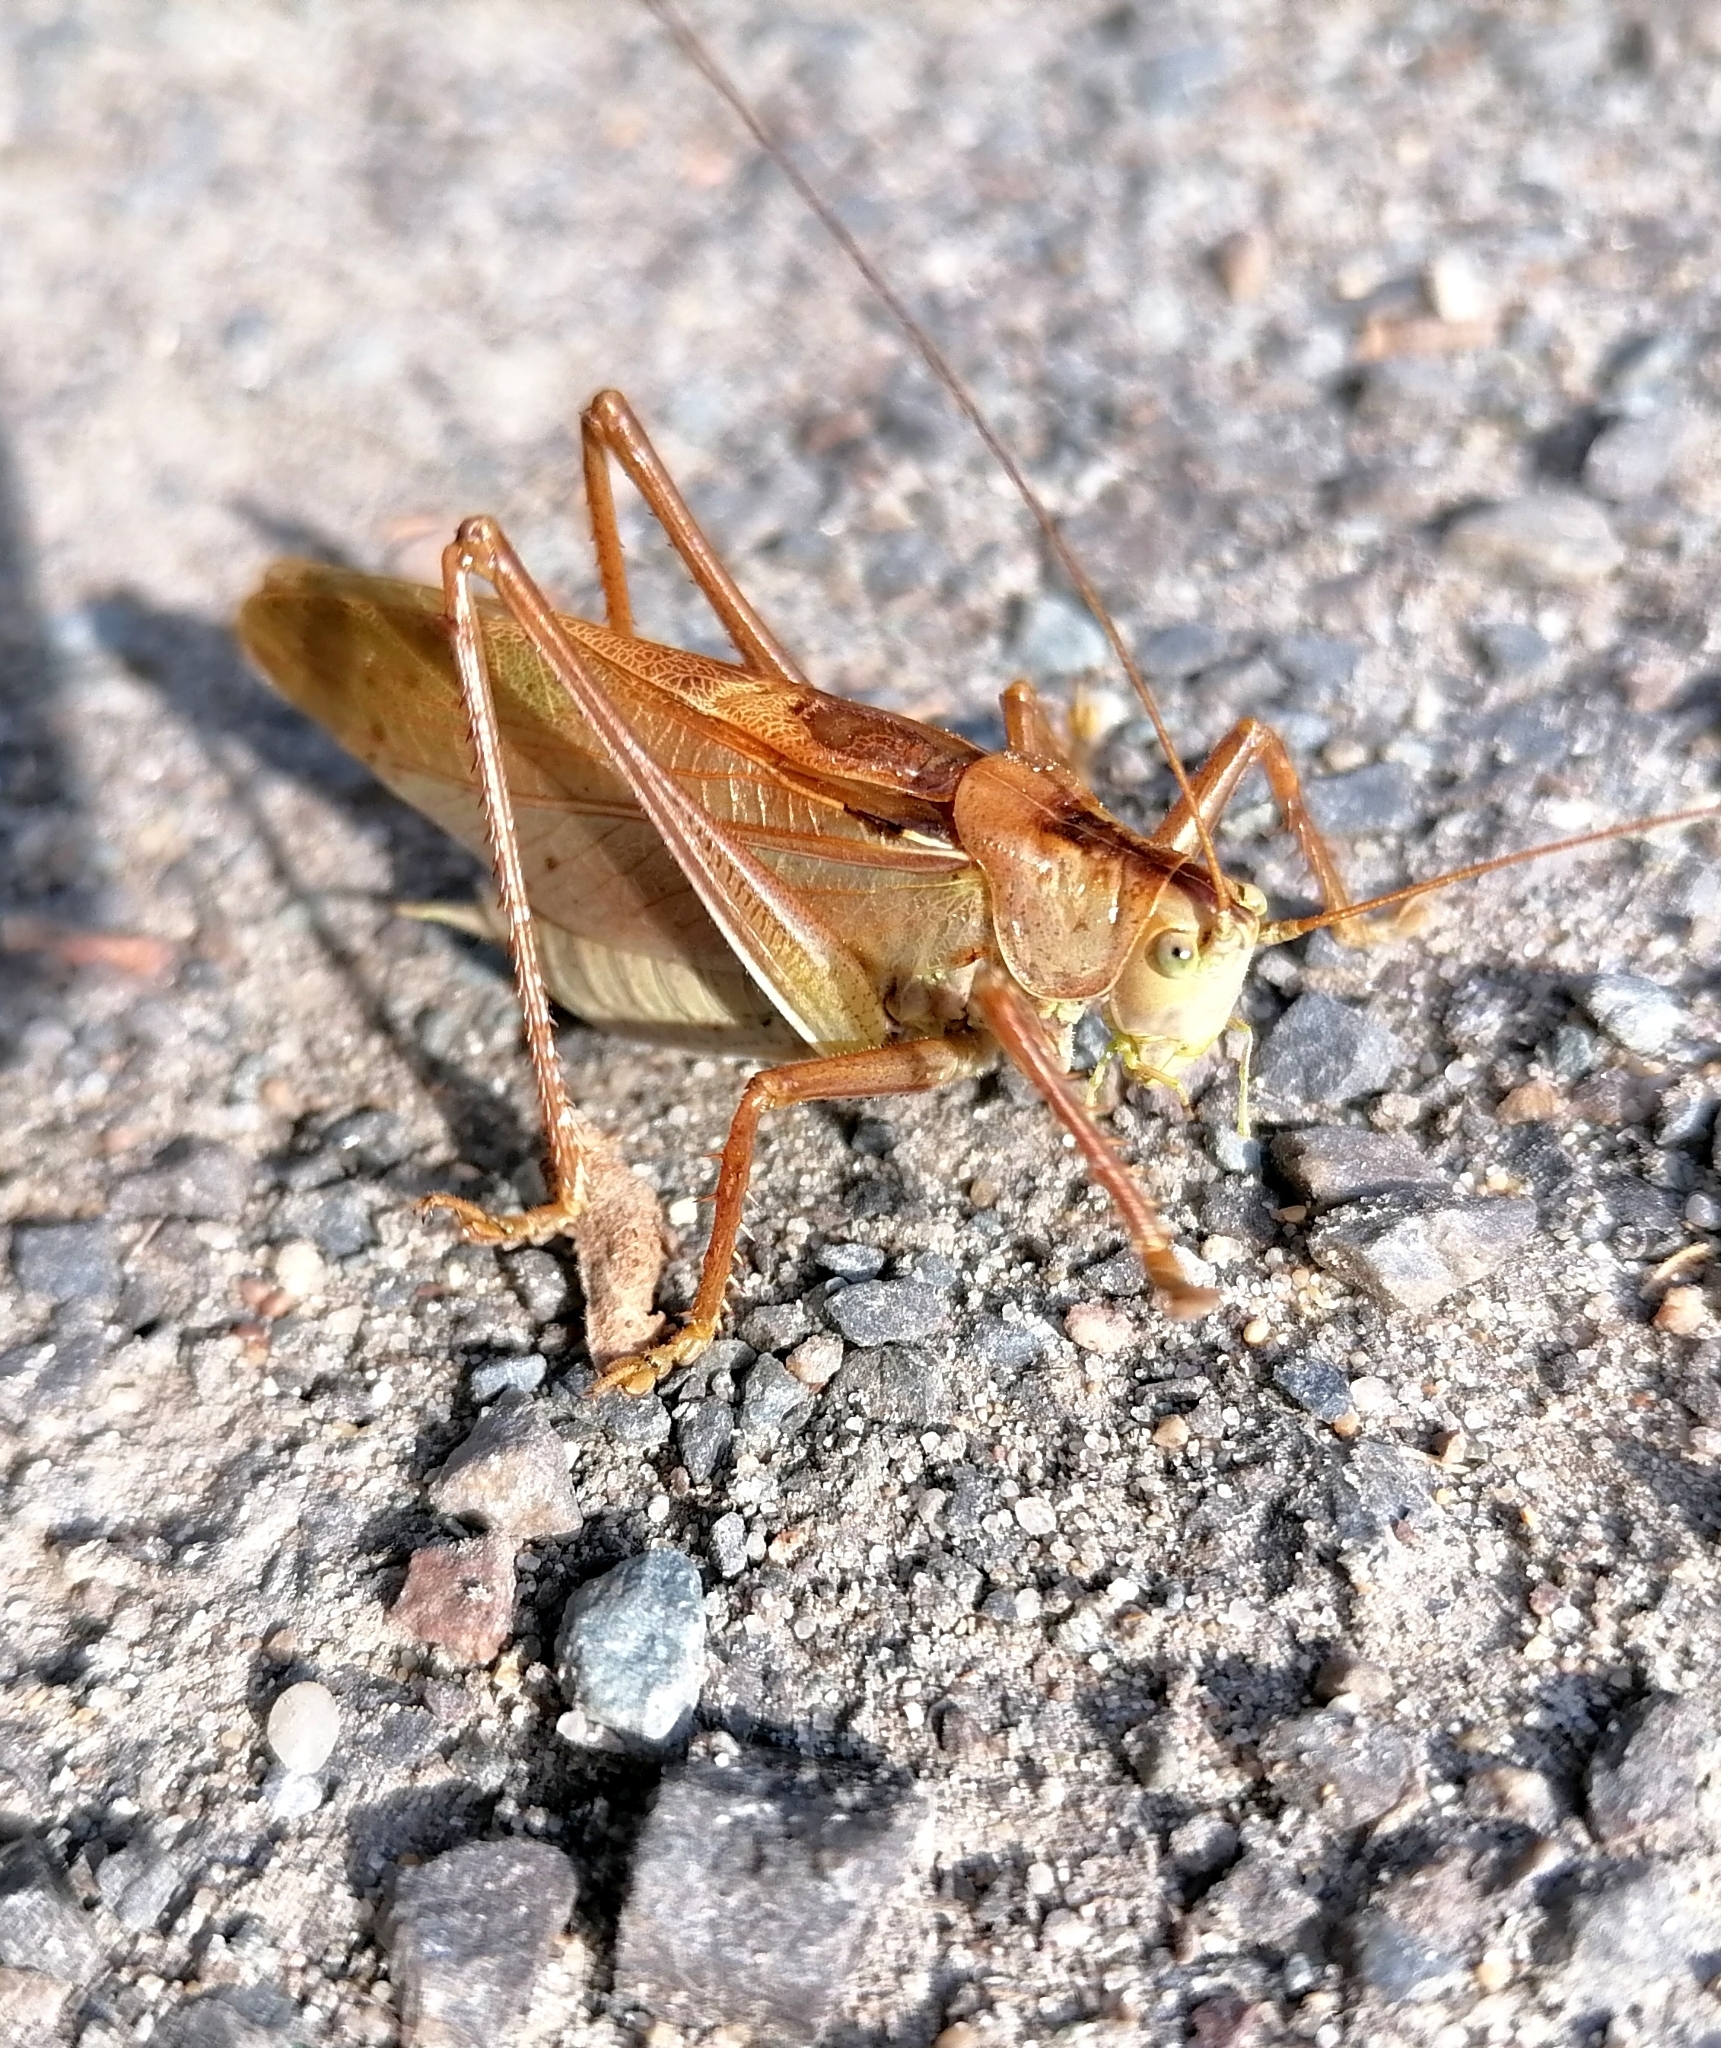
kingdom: Animalia
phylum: Arthropoda
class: Insecta
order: Orthoptera
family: Tettigoniidae
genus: Tettigonia
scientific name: Tettigonia cantans
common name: Upland green bush-cricket
